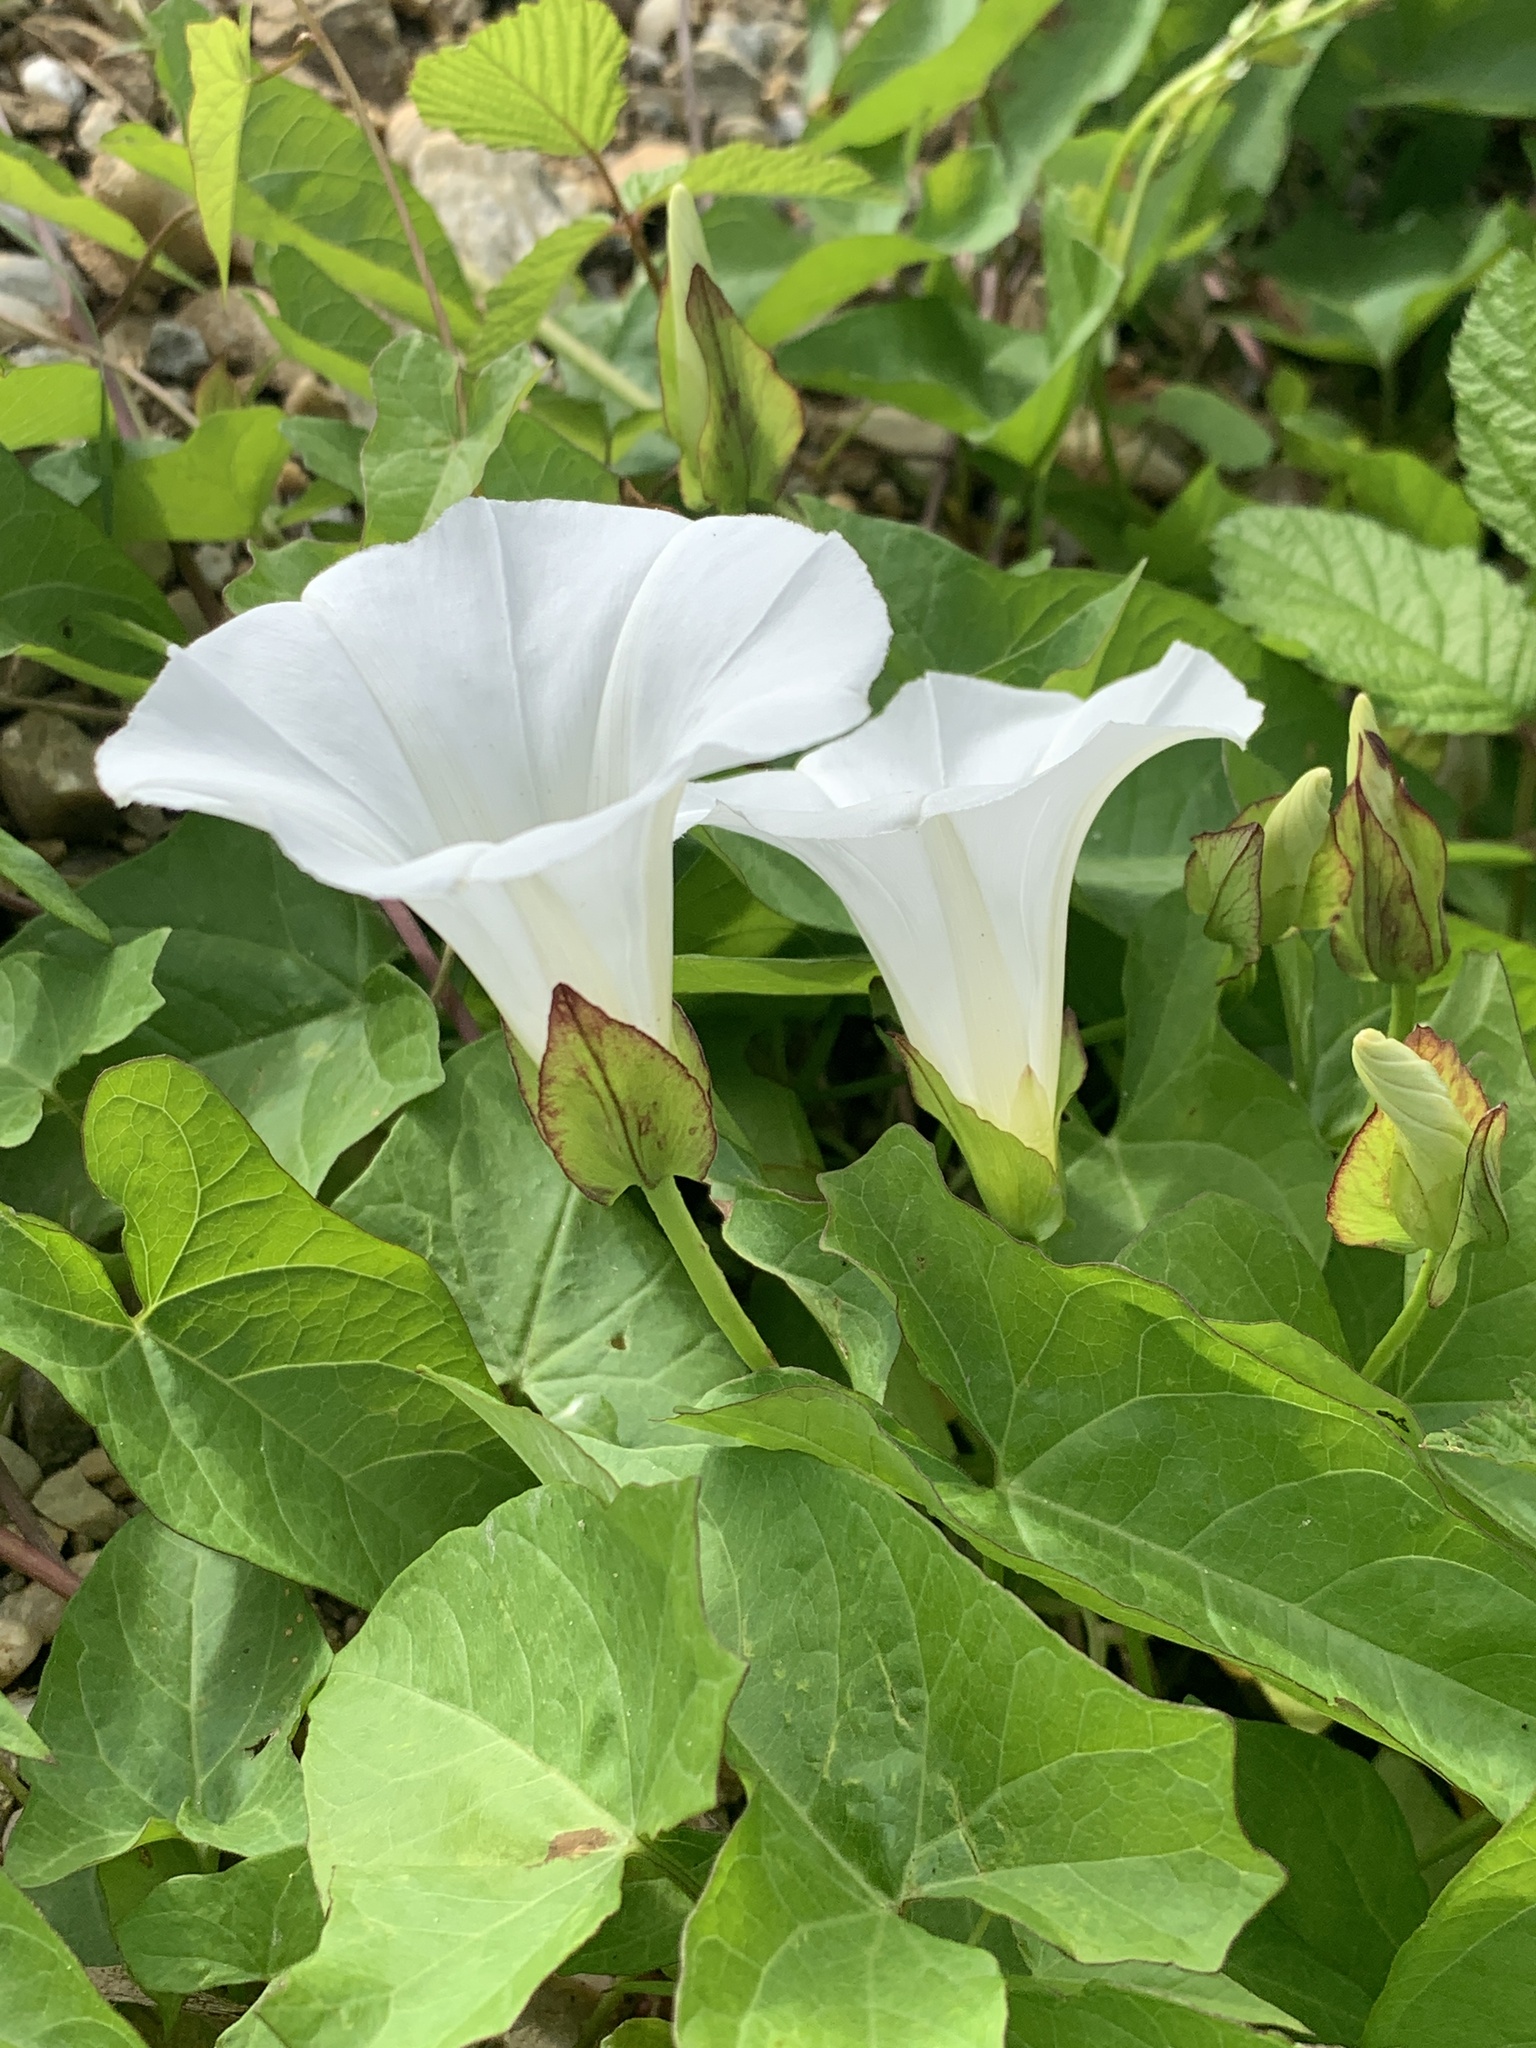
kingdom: Plantae
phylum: Tracheophyta
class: Magnoliopsida
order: Solanales
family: Convolvulaceae
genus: Calystegia
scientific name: Calystegia sepium
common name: Hedge bindweed
